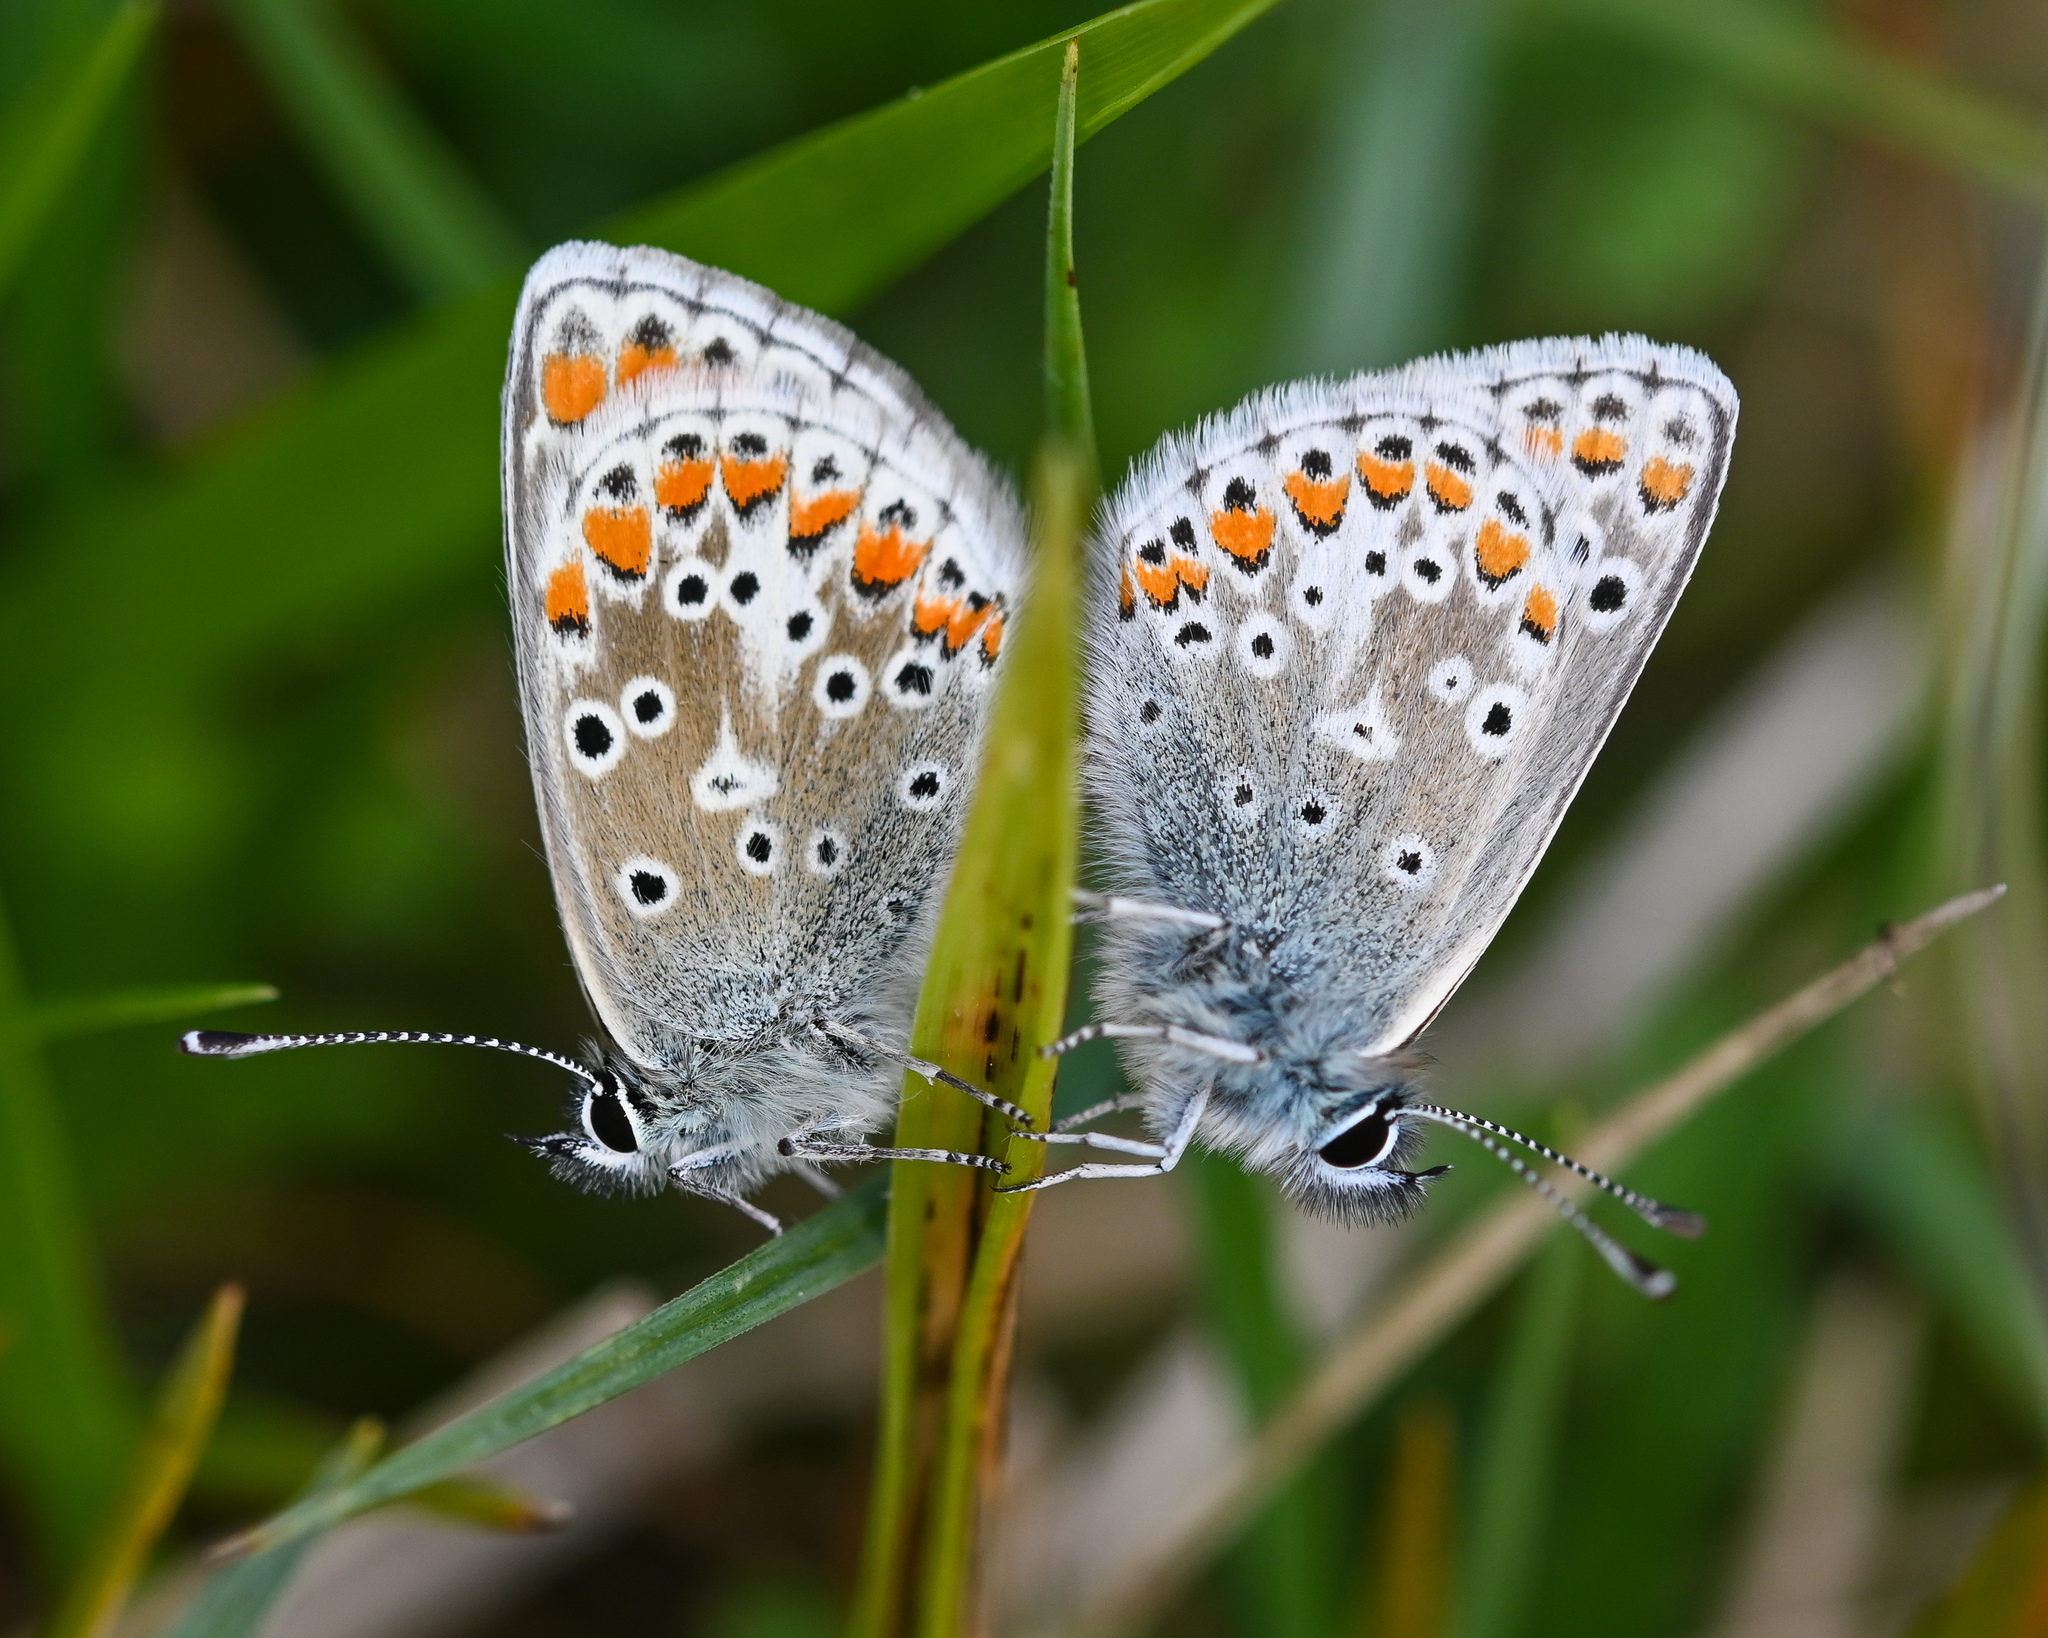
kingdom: Animalia
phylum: Arthropoda
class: Insecta
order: Lepidoptera
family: Lycaenidae
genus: Aricia
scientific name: Aricia agestis
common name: Brown argus
